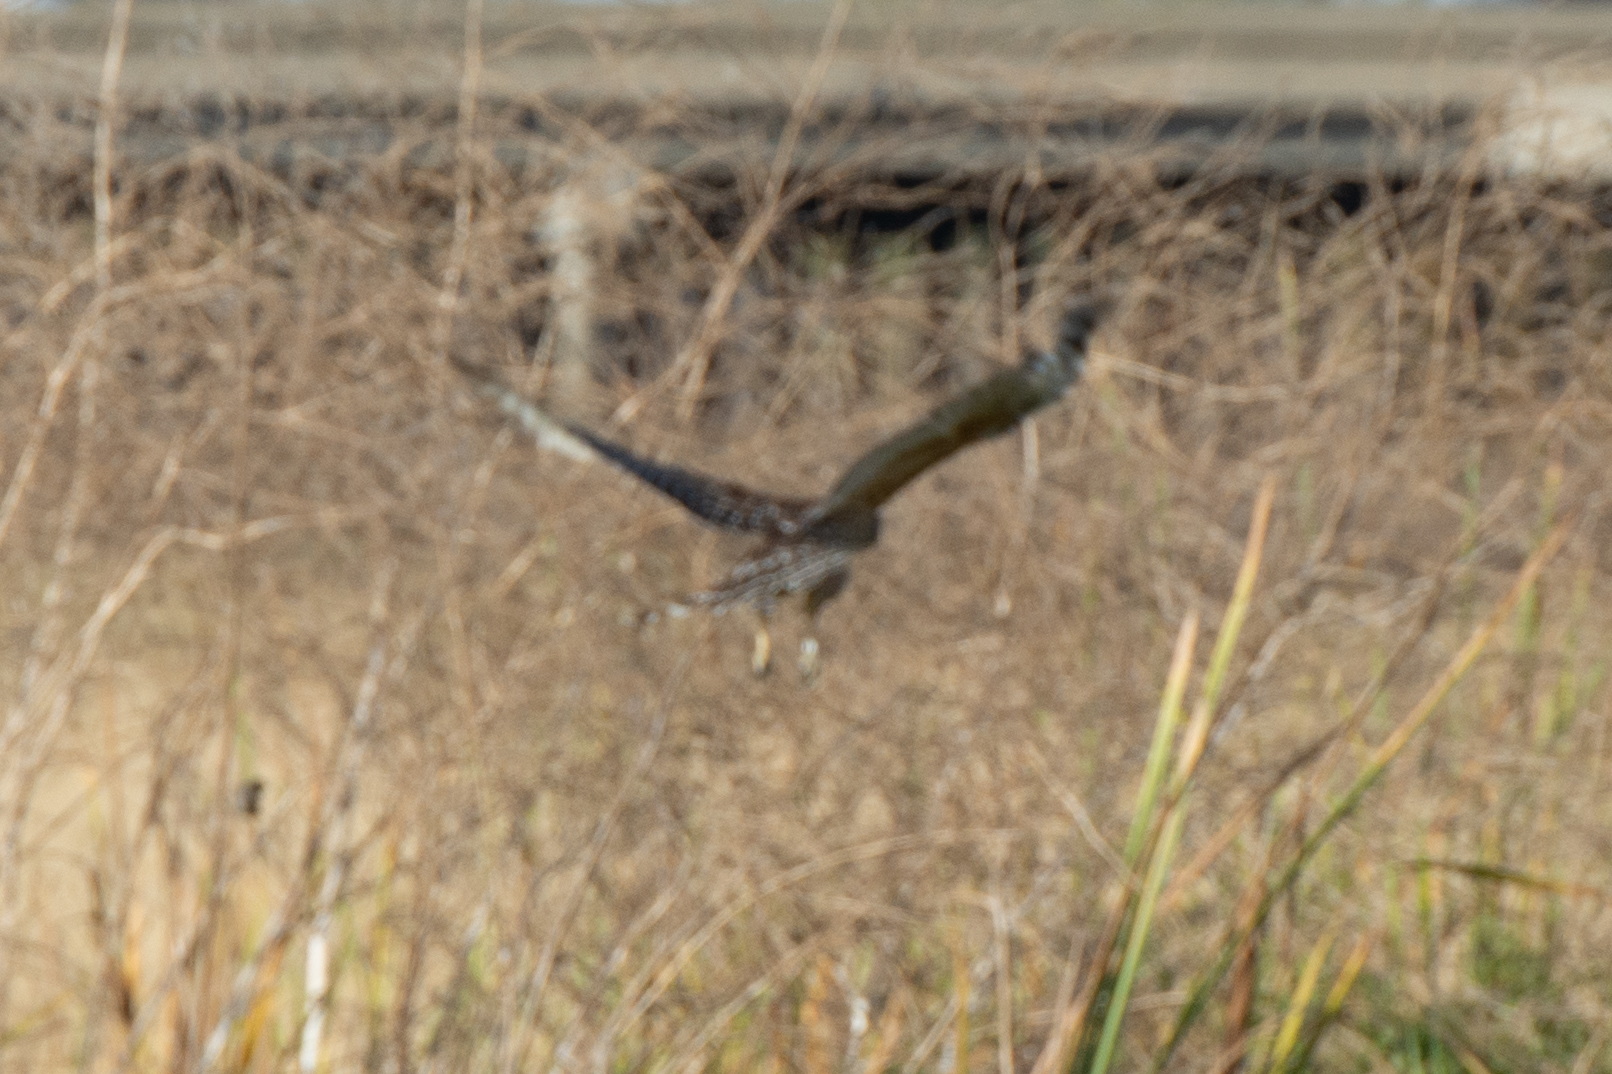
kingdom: Animalia
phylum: Chordata
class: Aves
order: Accipitriformes
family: Accipitridae
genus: Buteo
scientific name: Buteo lineatus
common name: Red-shouldered hawk
